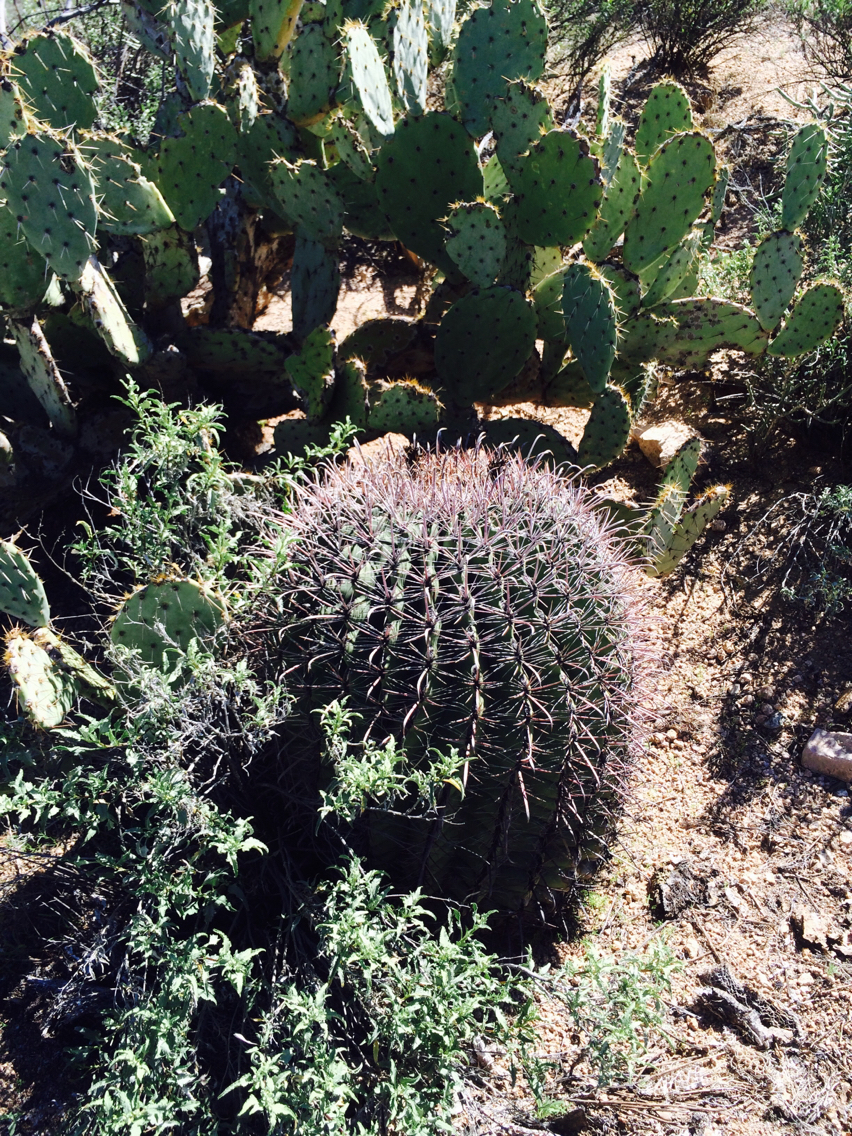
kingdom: Plantae
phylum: Tracheophyta
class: Magnoliopsida
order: Caryophyllales
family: Cactaceae
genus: Ferocactus
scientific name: Ferocactus wislizeni
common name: Candy barrel cactus
